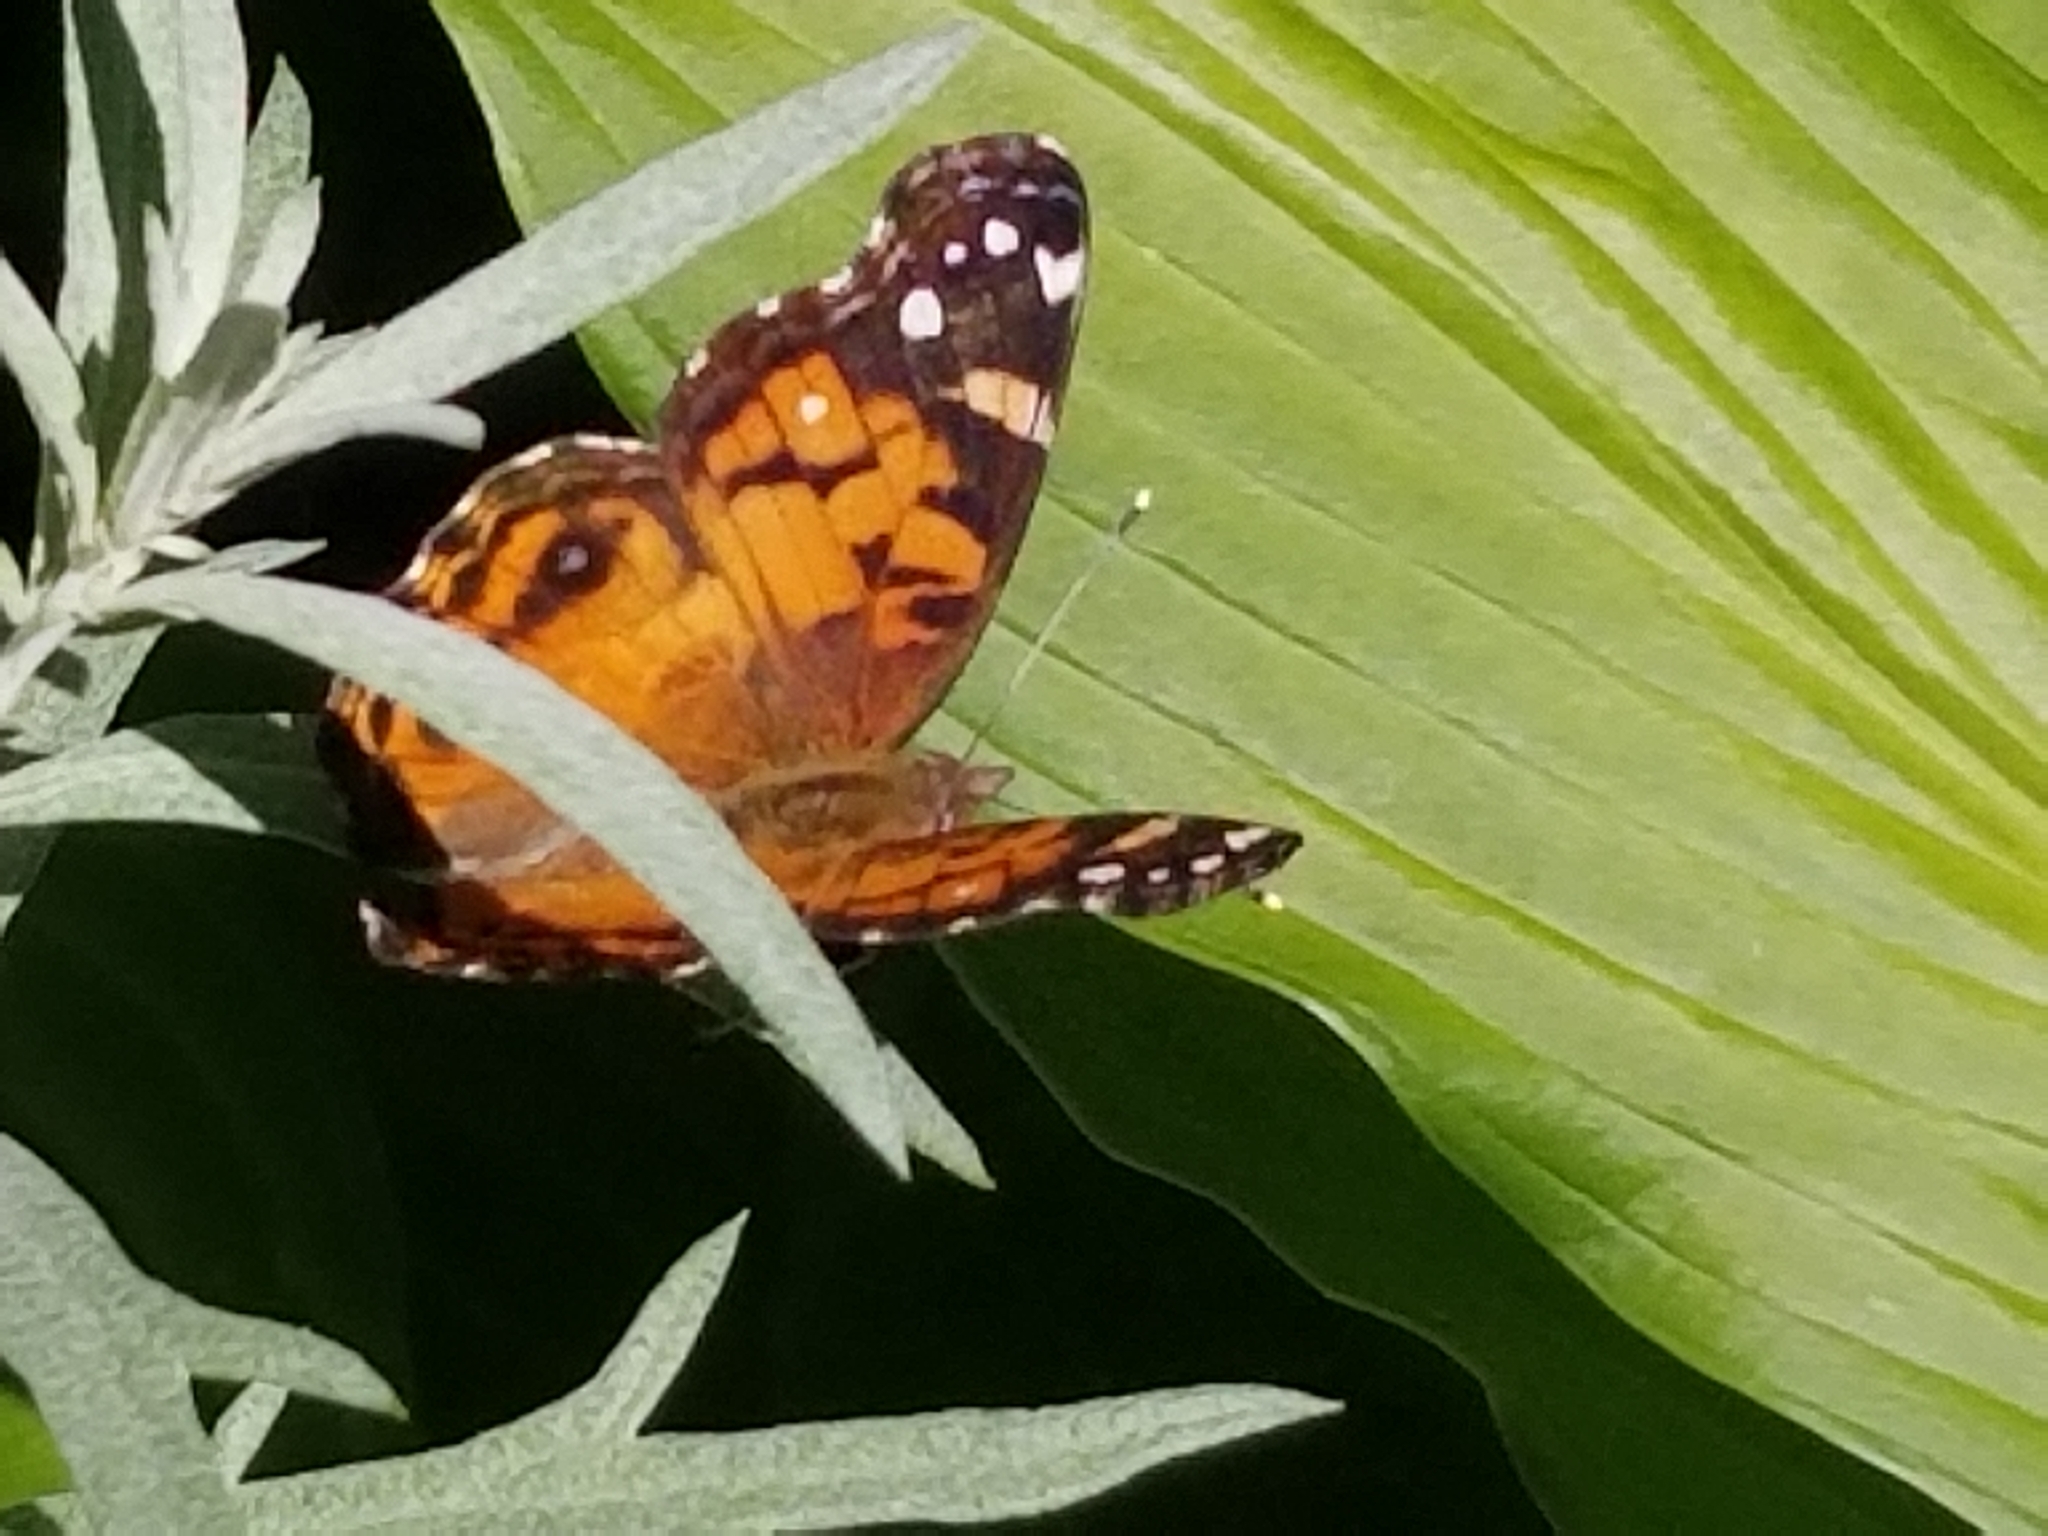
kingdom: Animalia
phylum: Arthropoda
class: Insecta
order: Lepidoptera
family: Nymphalidae
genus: Vanessa
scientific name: Vanessa virginiensis
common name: American lady
